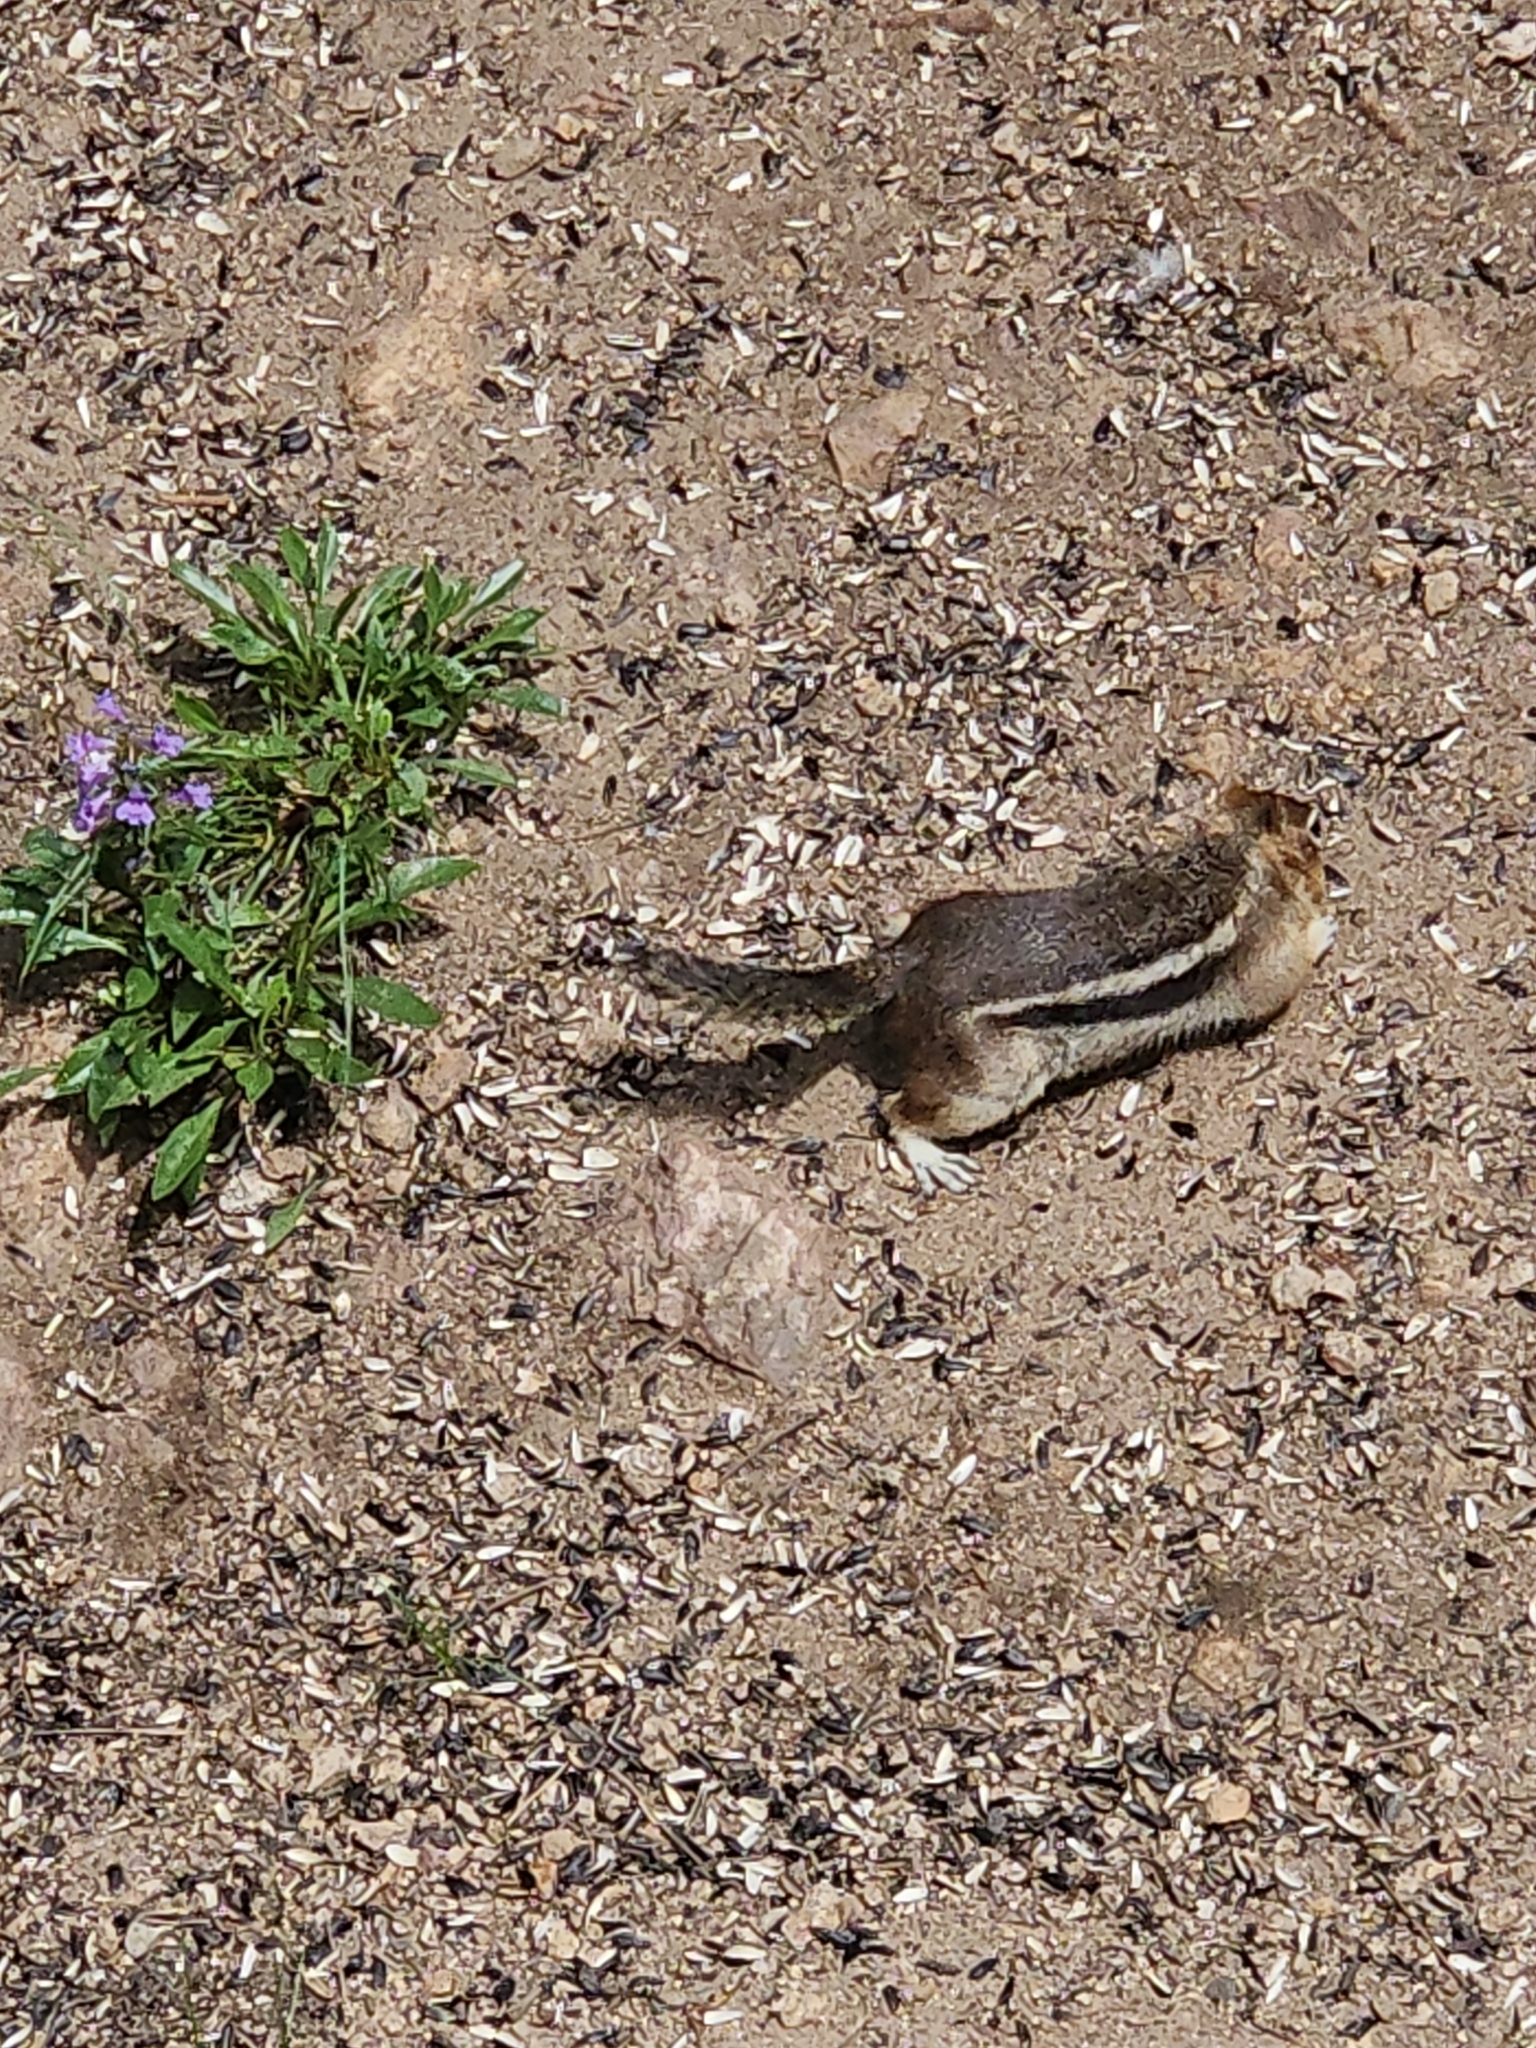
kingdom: Animalia
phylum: Chordata
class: Mammalia
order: Rodentia
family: Sciuridae
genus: Callospermophilus
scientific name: Callospermophilus lateralis
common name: Golden-mantled ground squirrel
